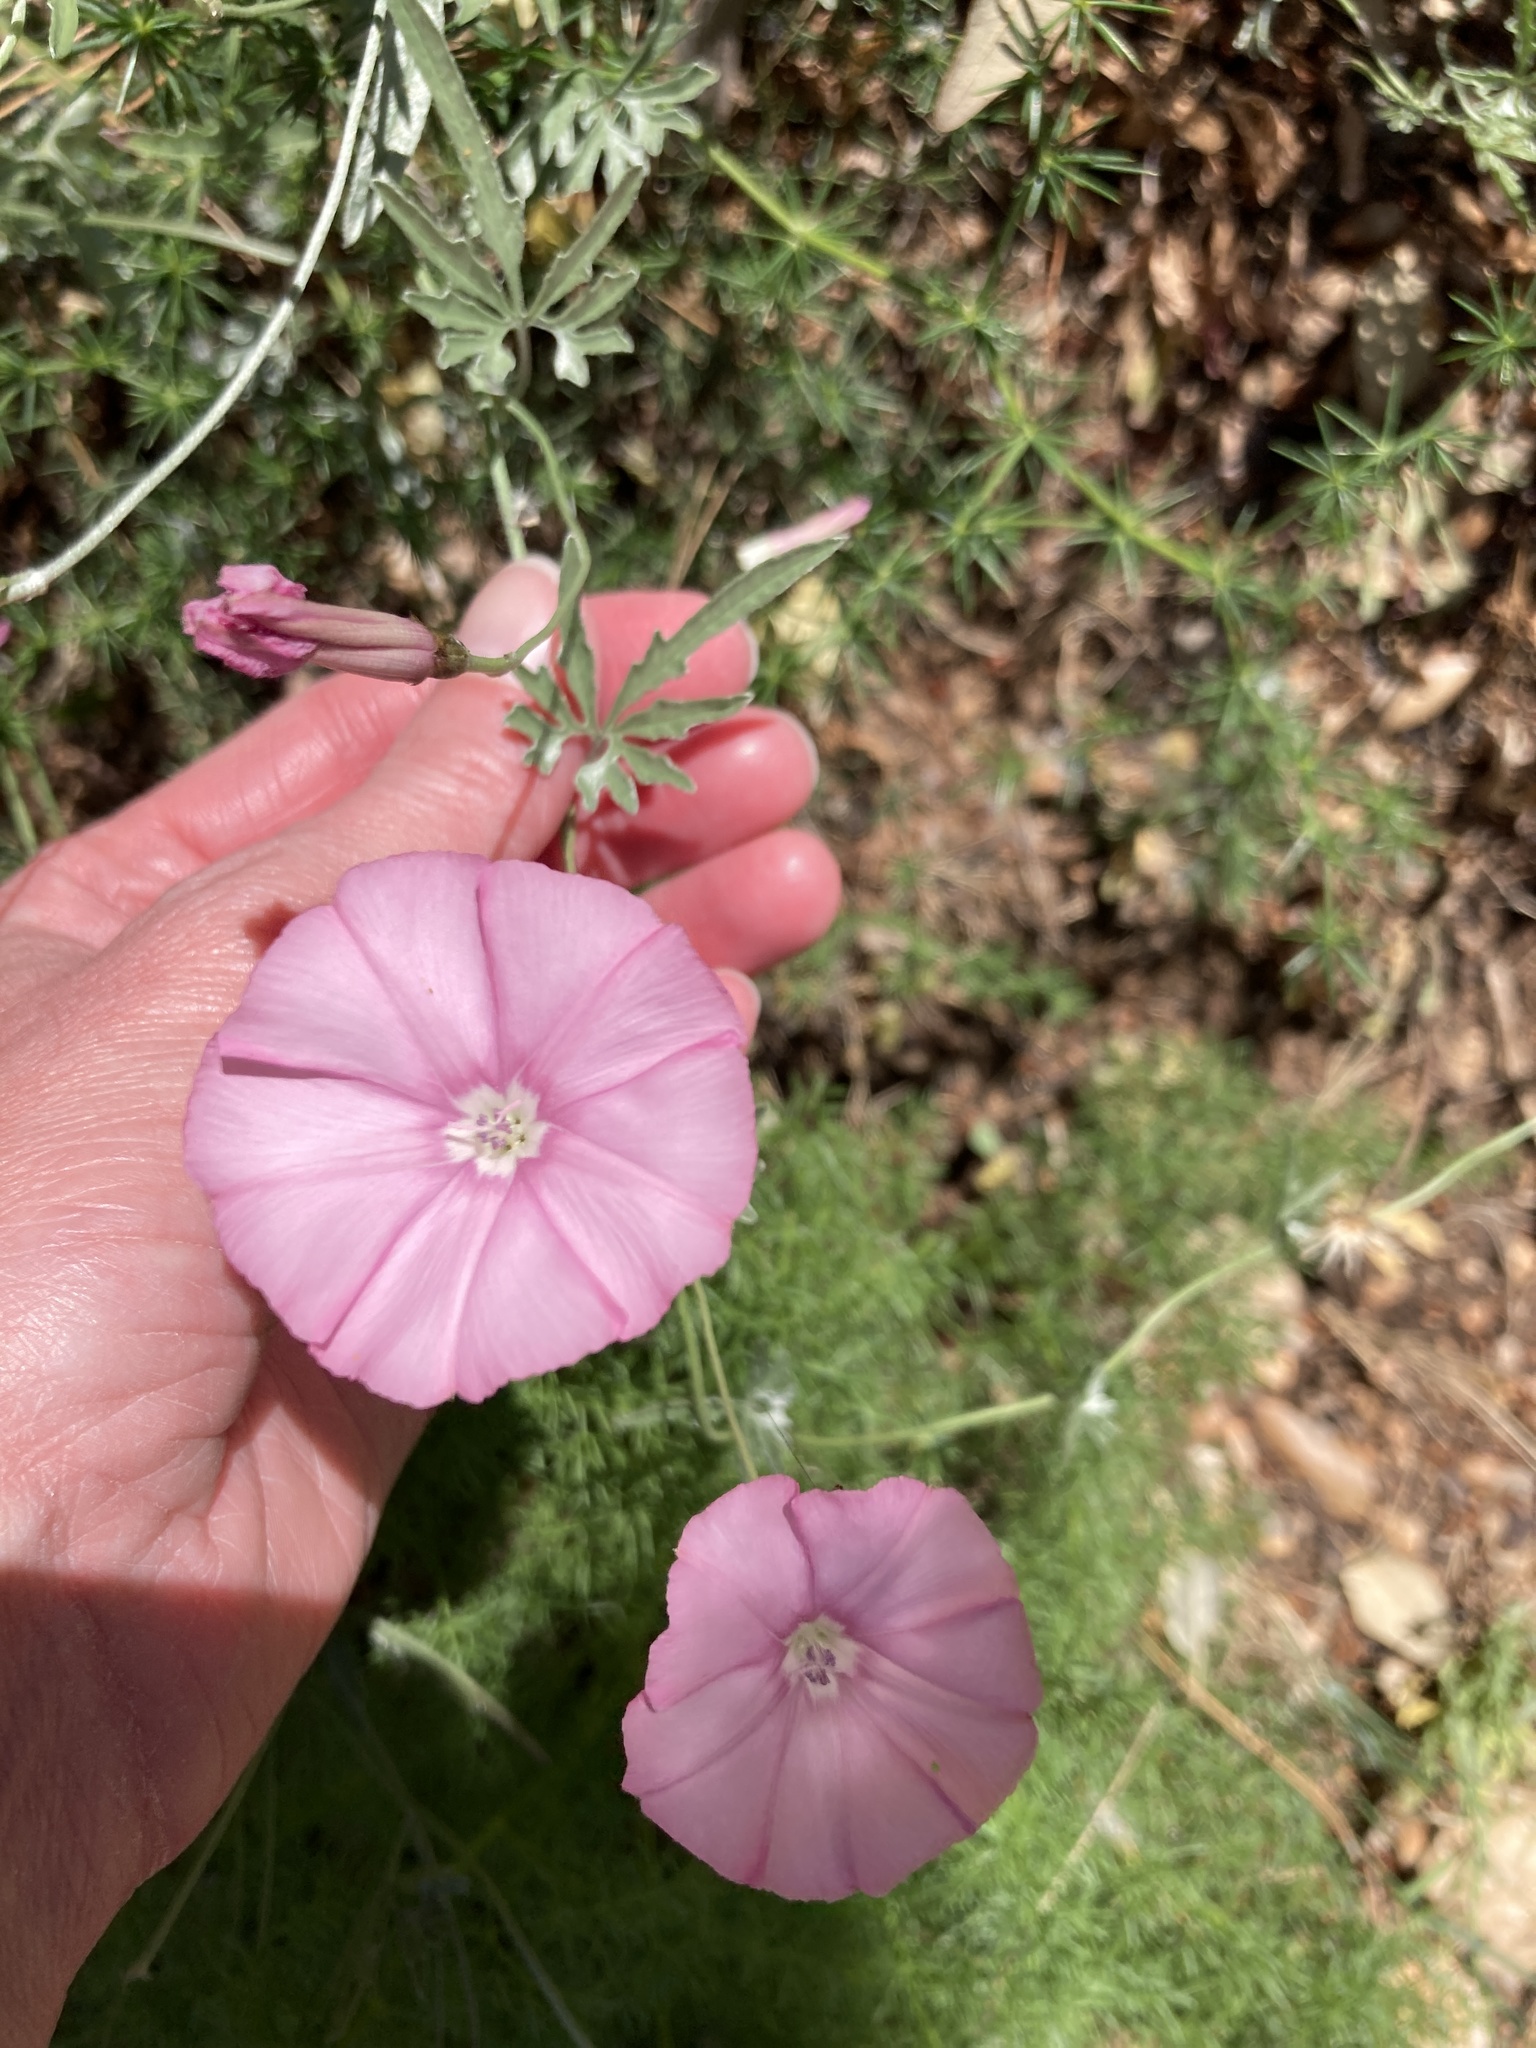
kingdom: Plantae
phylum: Tracheophyta
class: Magnoliopsida
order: Solanales
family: Convolvulaceae
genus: Convolvulus
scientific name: Convolvulus elegantissimus
